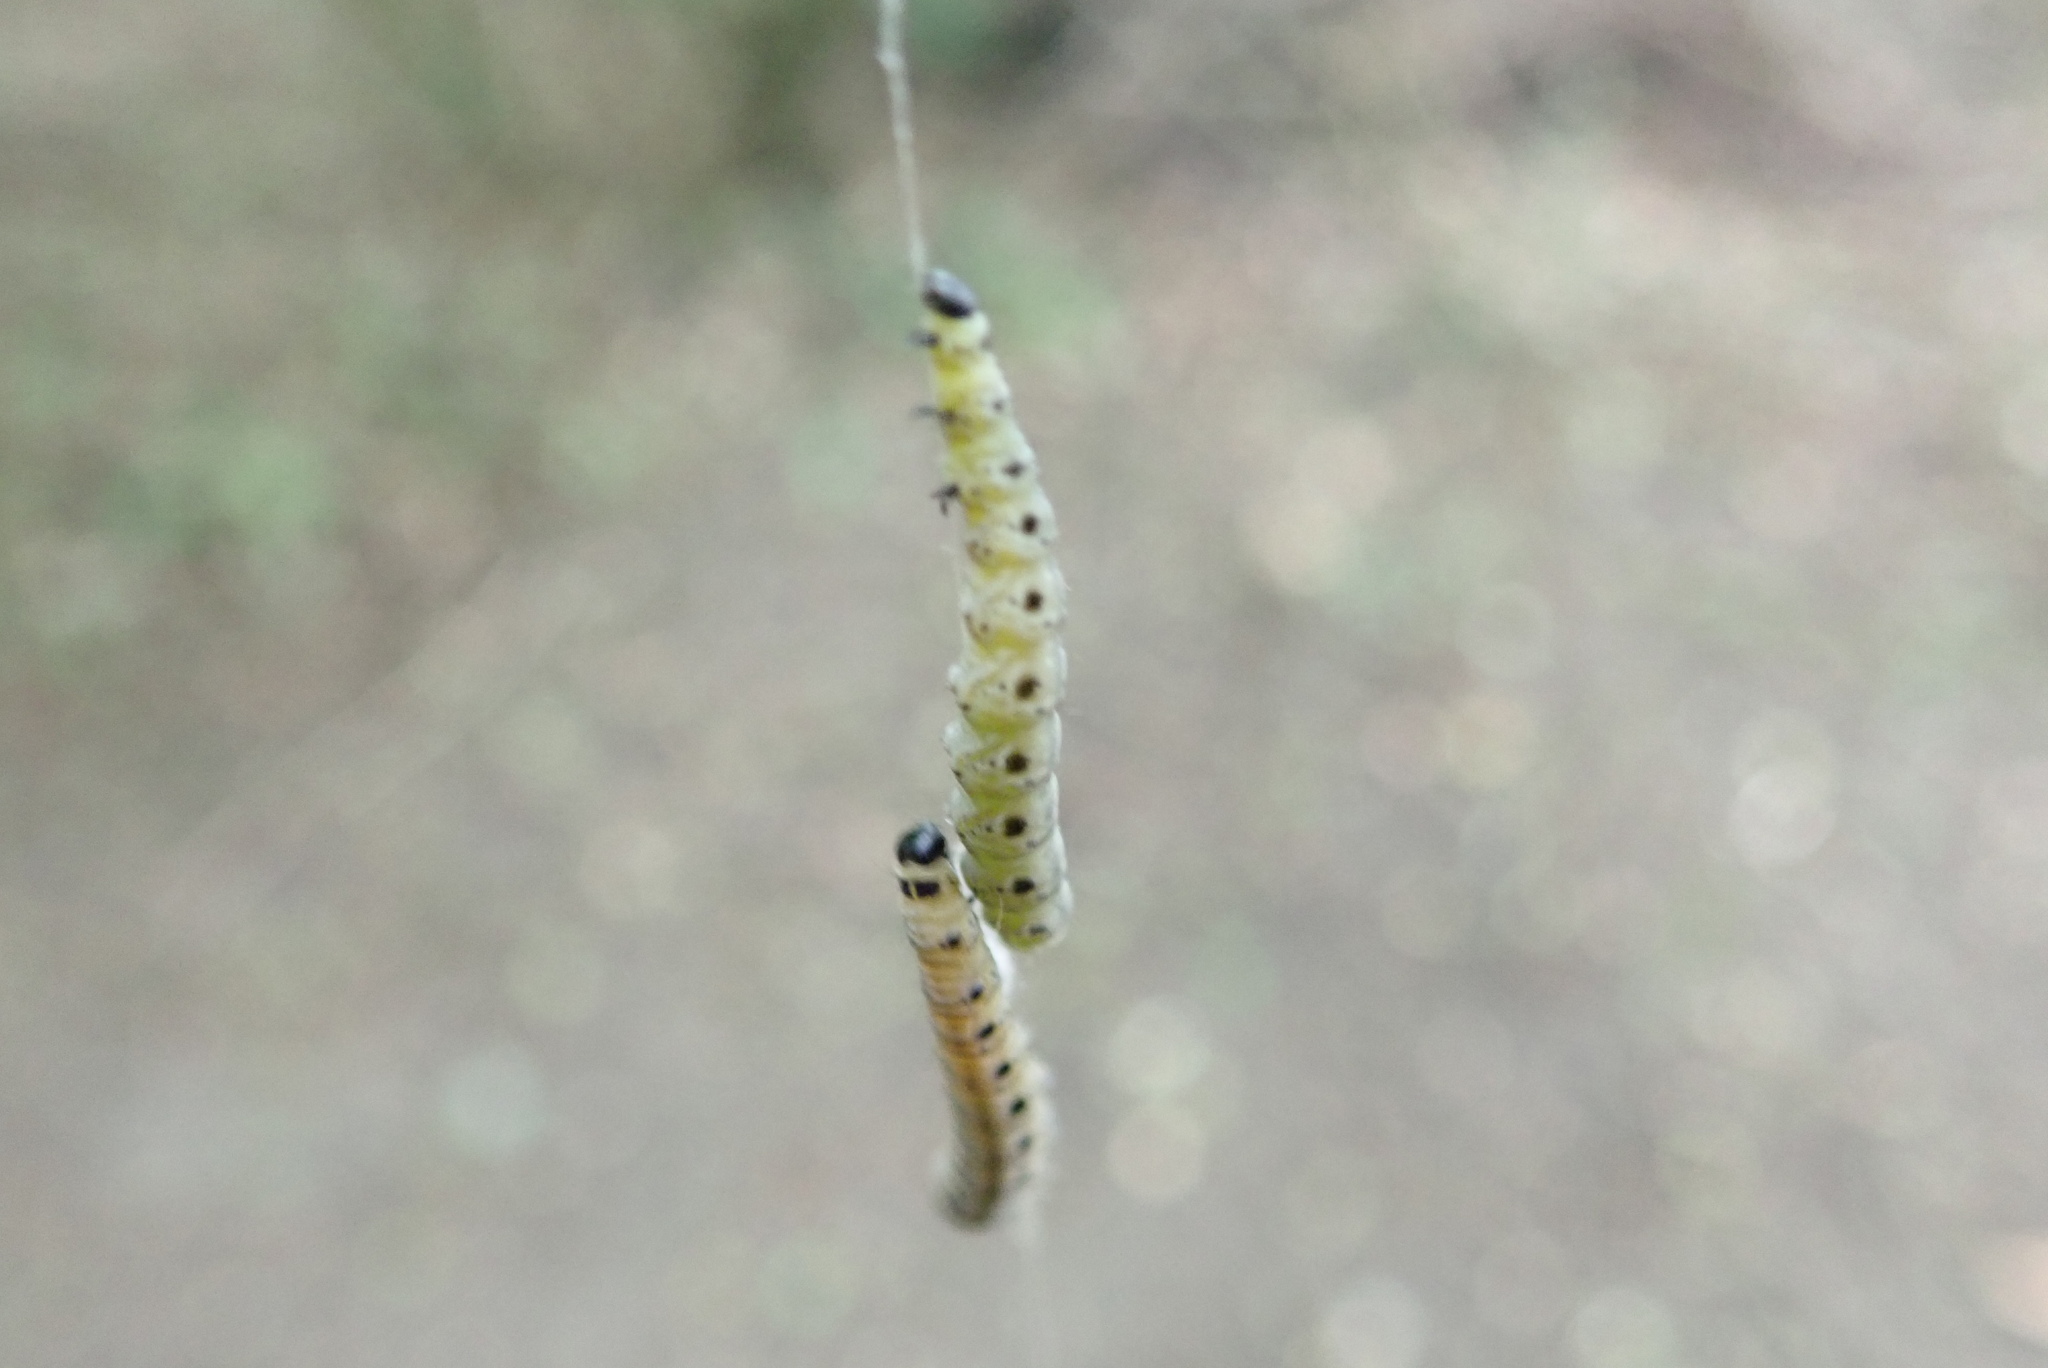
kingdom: Animalia
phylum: Arthropoda
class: Insecta
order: Lepidoptera
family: Yponomeutidae
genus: Yponomeuta
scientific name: Yponomeuta cagnagellus
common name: Spindle ermine
